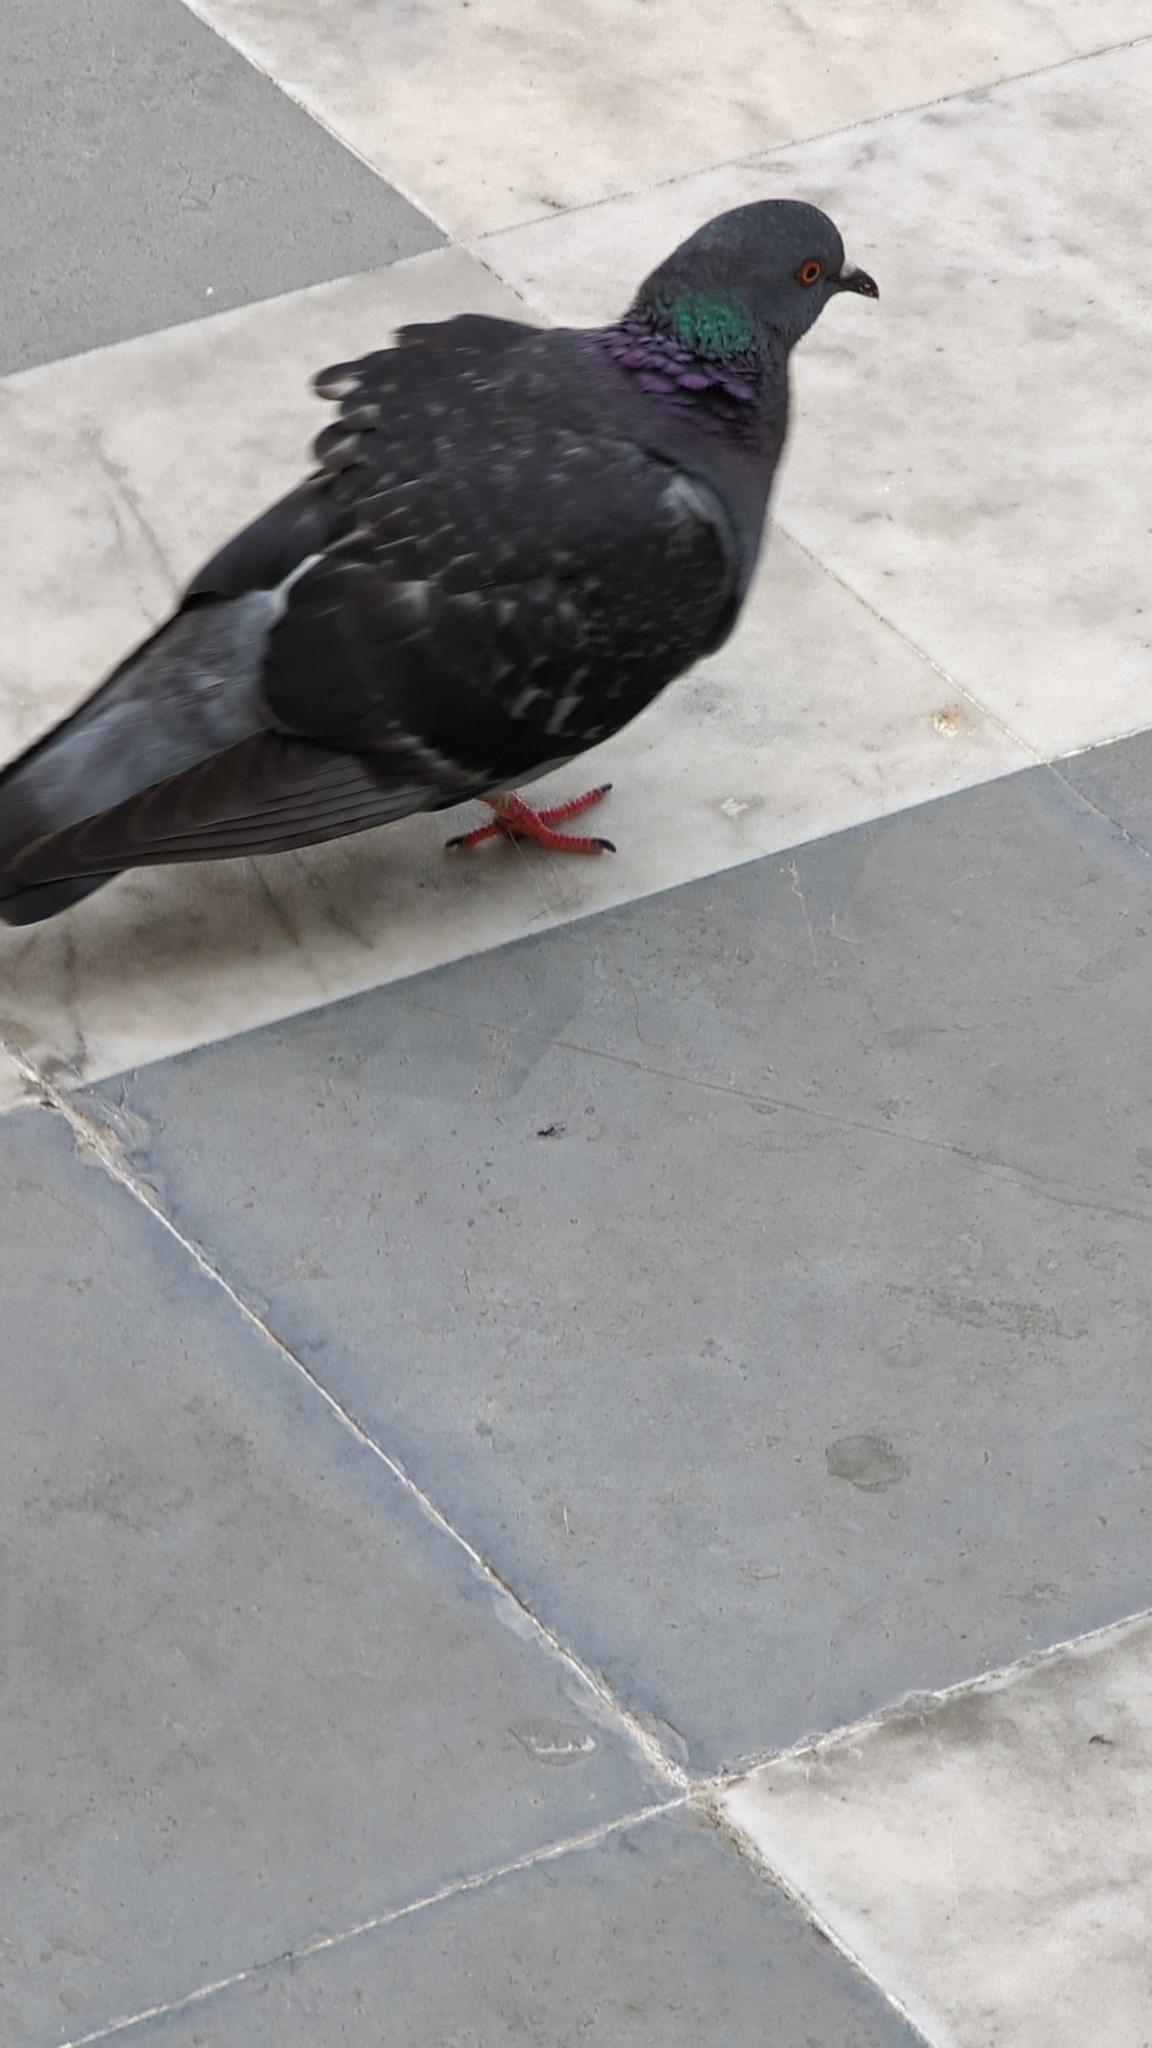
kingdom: Animalia
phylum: Chordata
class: Aves
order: Columbiformes
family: Columbidae
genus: Columba
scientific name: Columba livia
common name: Rock pigeon
